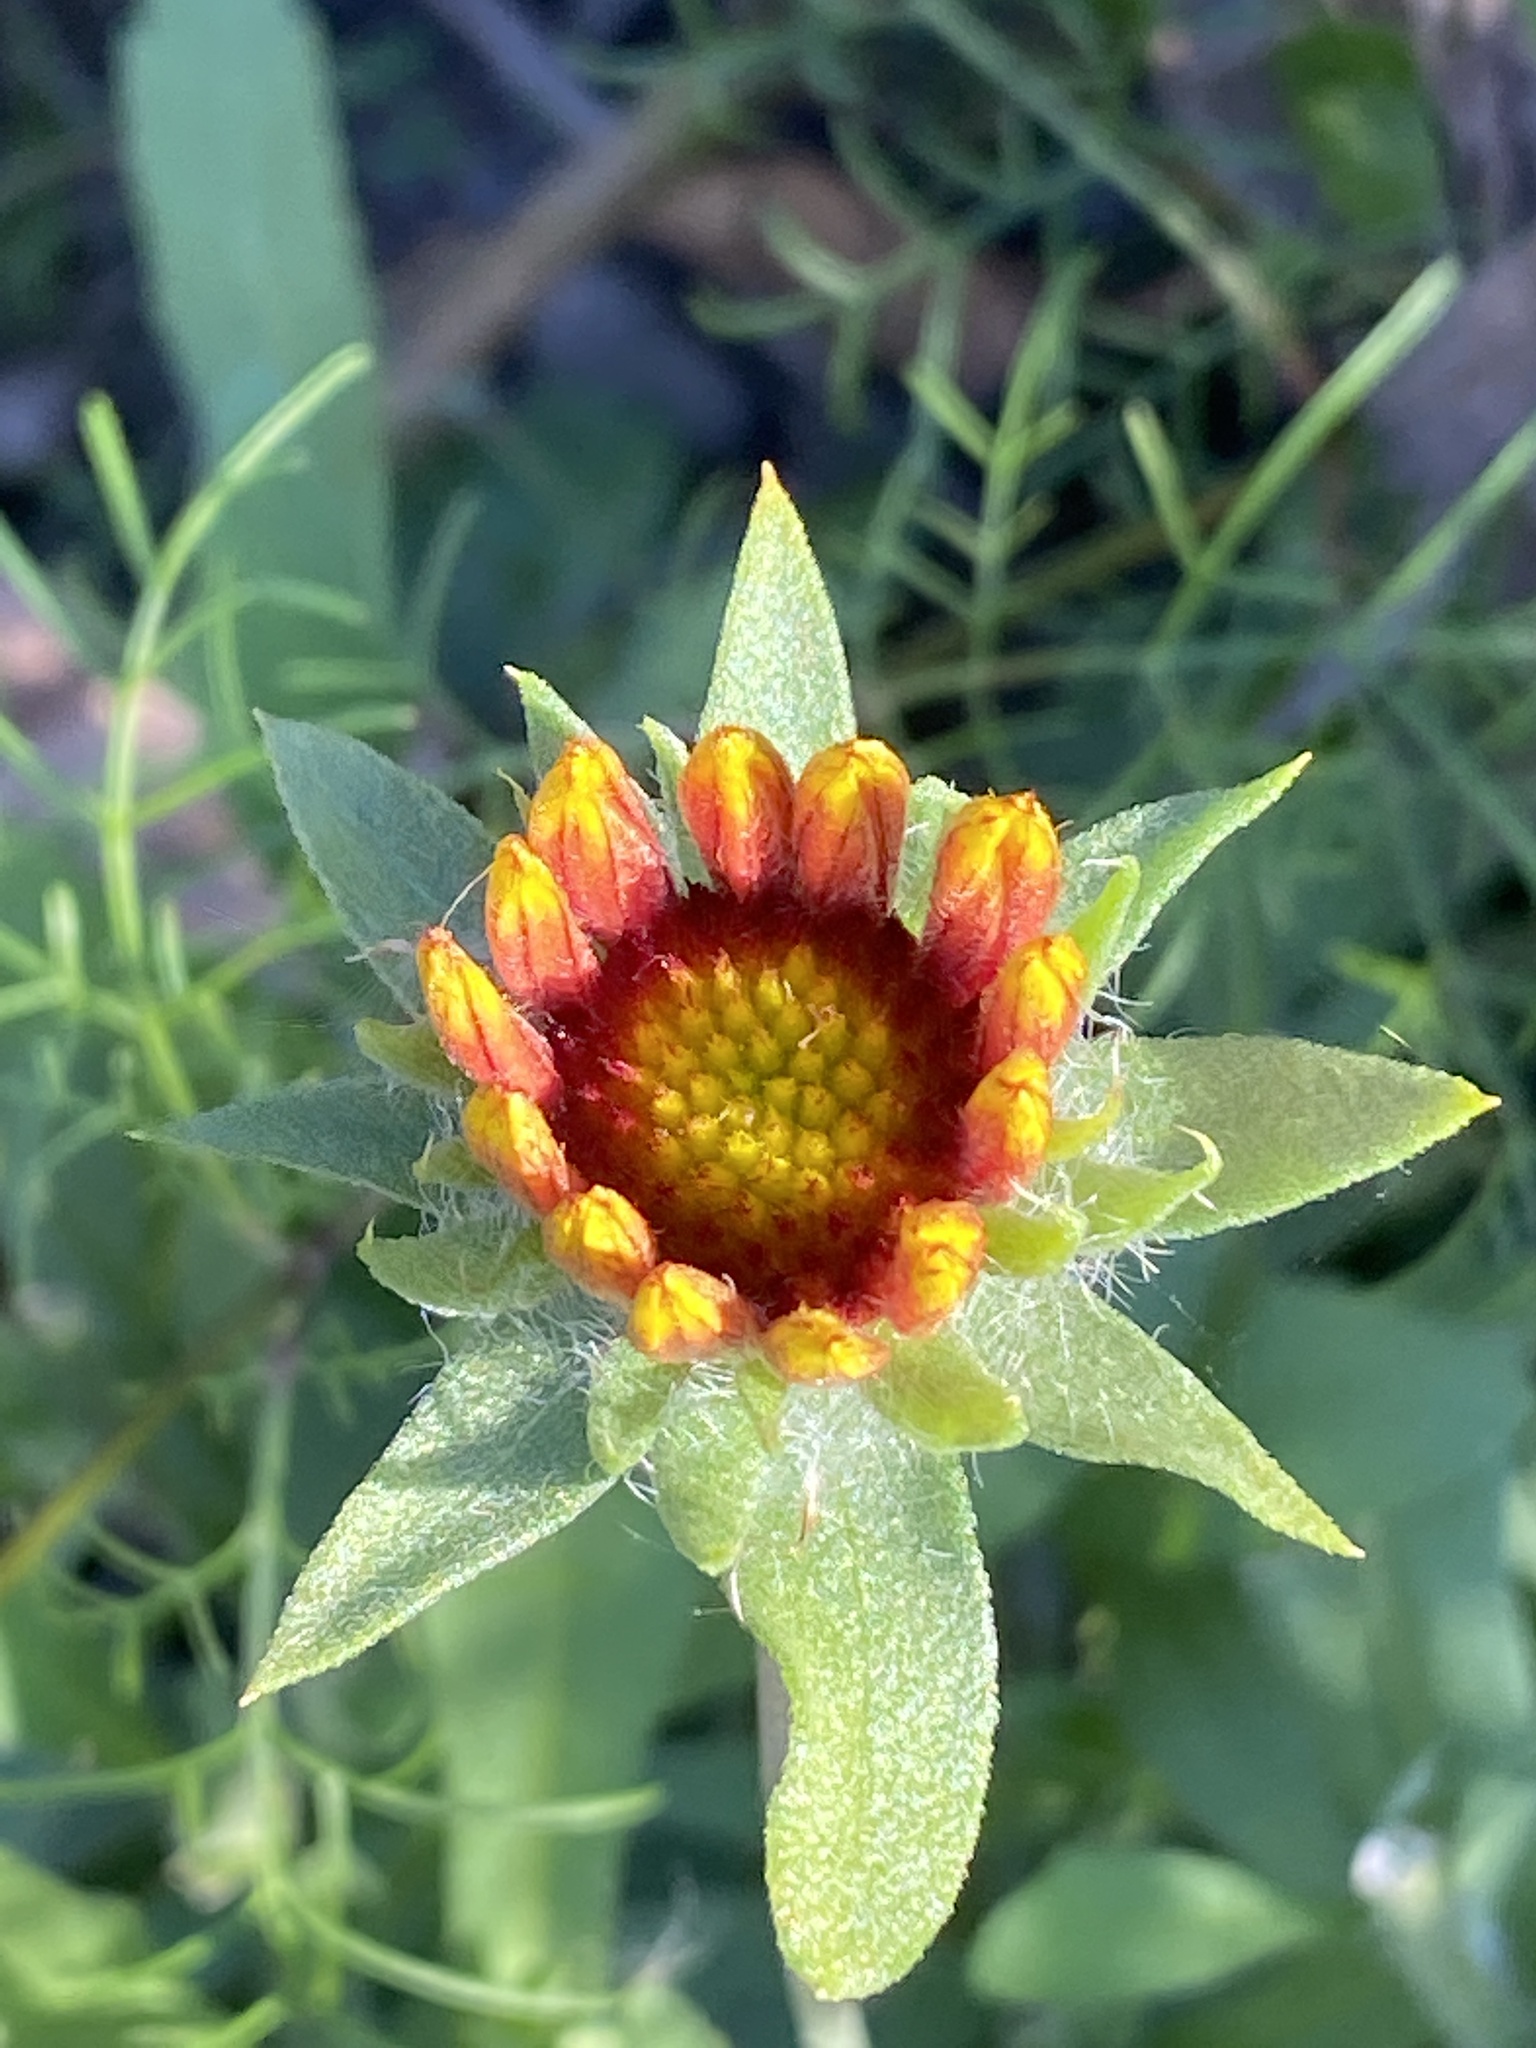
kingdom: Plantae
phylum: Tracheophyta
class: Magnoliopsida
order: Asterales
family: Asteraceae
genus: Gaillardia
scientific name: Gaillardia pulchella
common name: Firewheel
